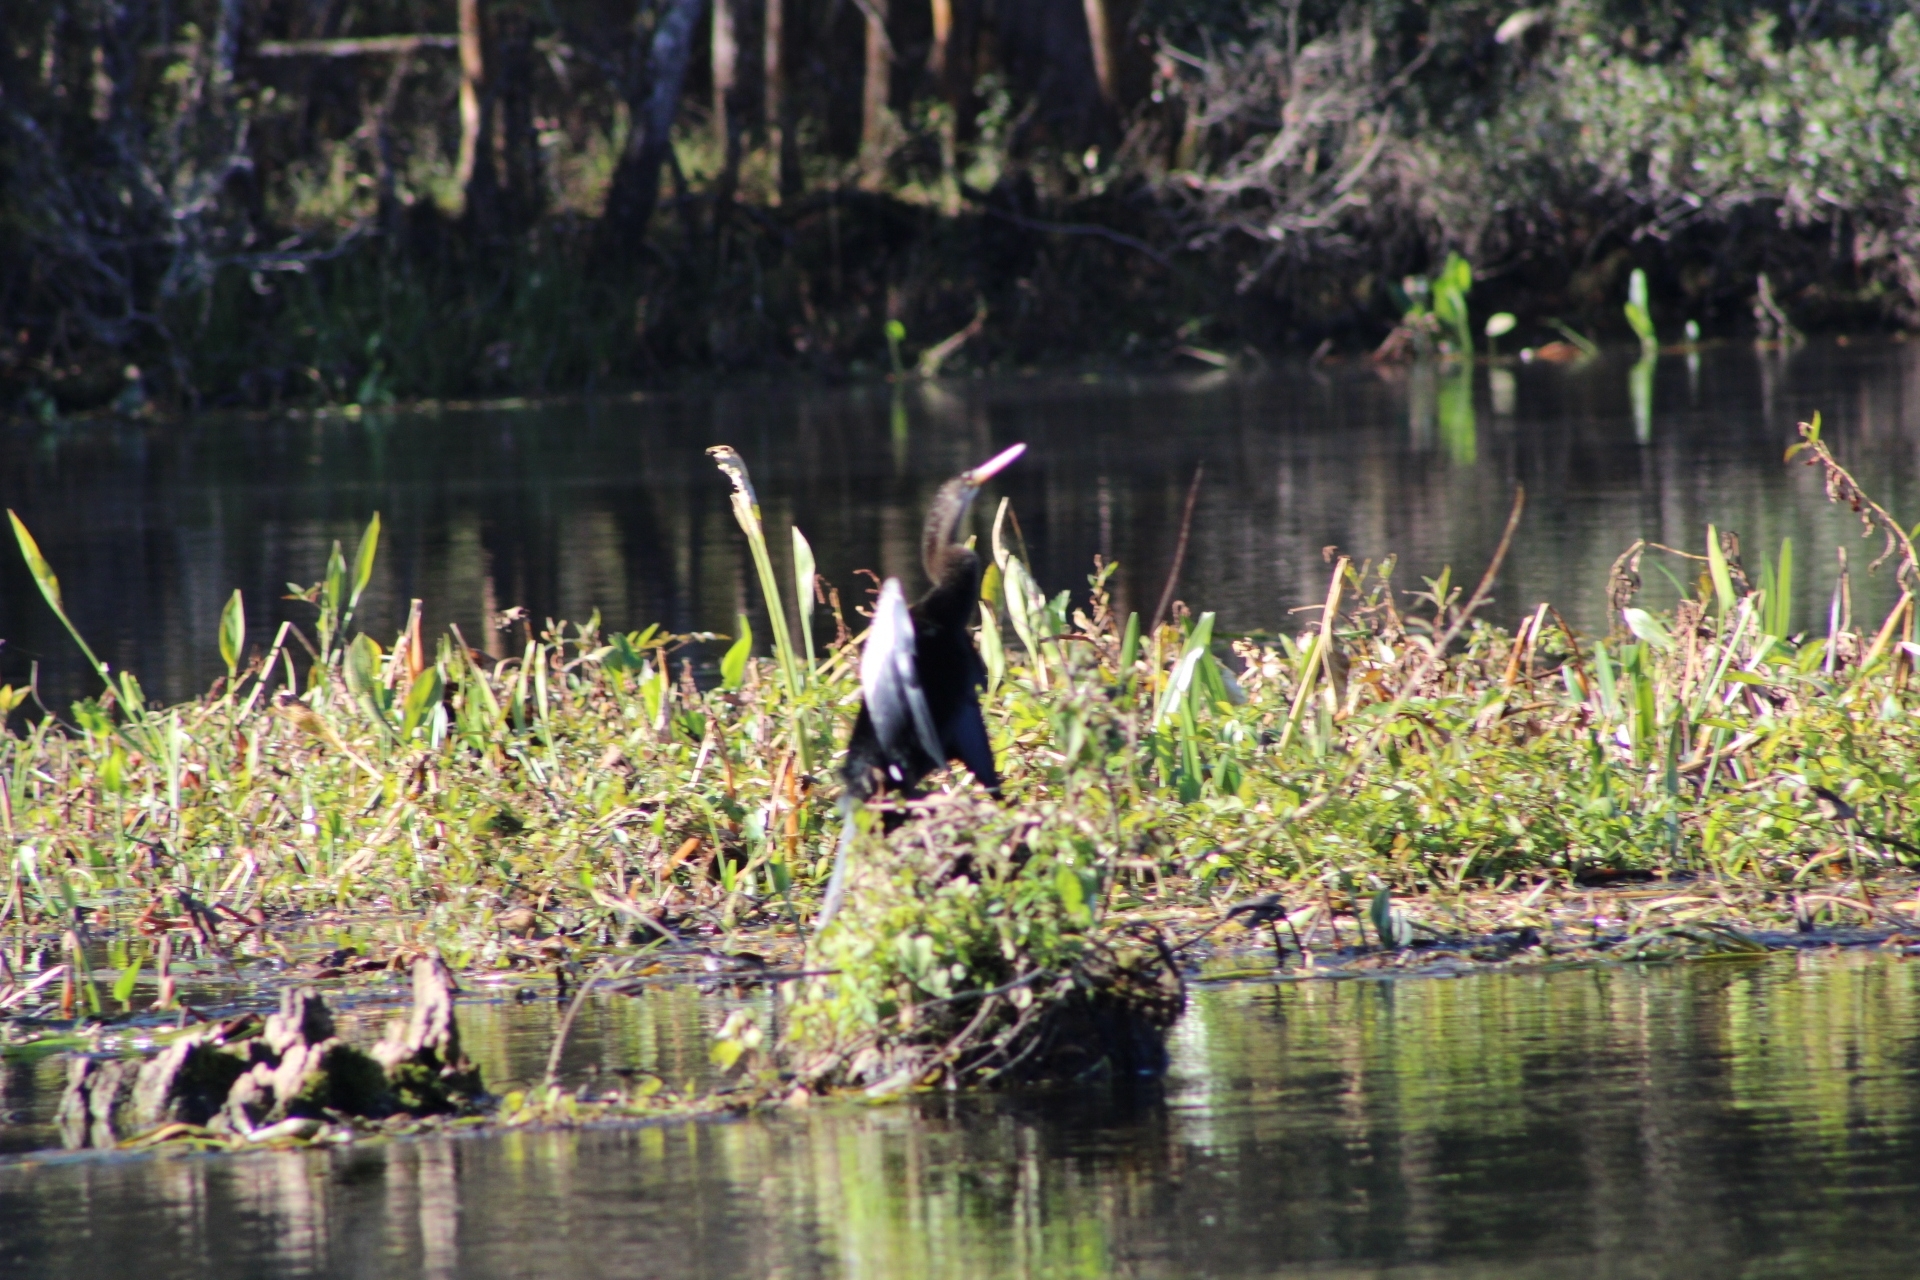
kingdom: Animalia
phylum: Chordata
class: Aves
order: Suliformes
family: Anhingidae
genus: Anhinga
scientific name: Anhinga anhinga
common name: Anhinga
